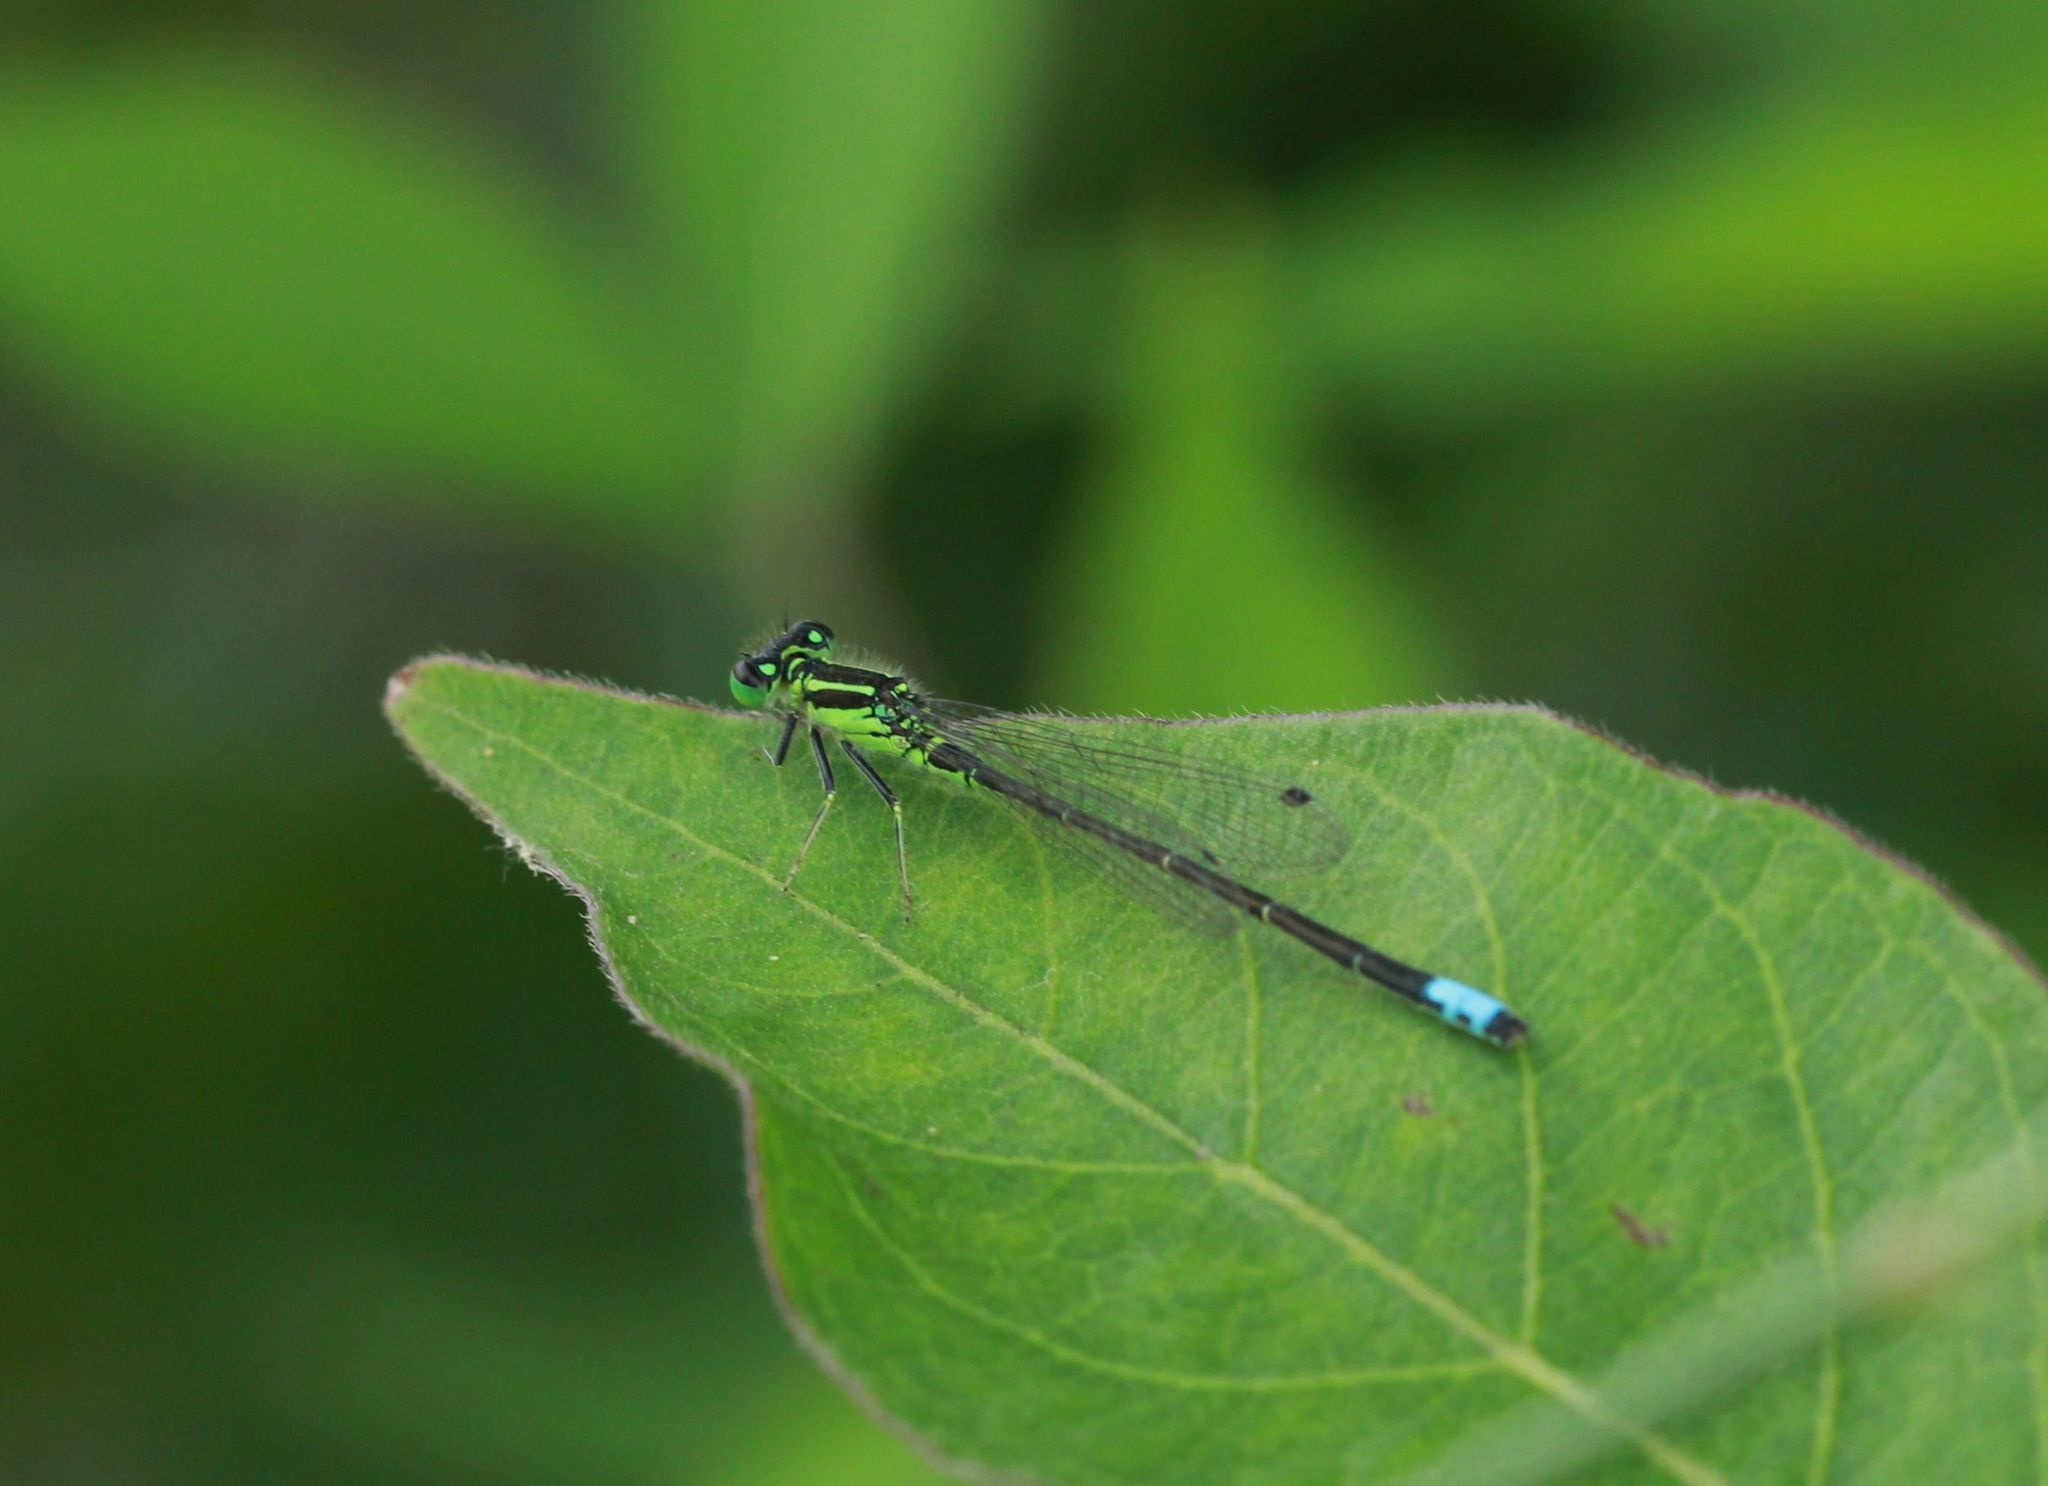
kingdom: Animalia
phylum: Arthropoda
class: Insecta
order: Odonata
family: Coenagrionidae
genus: Ischnura
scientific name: Ischnura verticalis
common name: Eastern forktail
